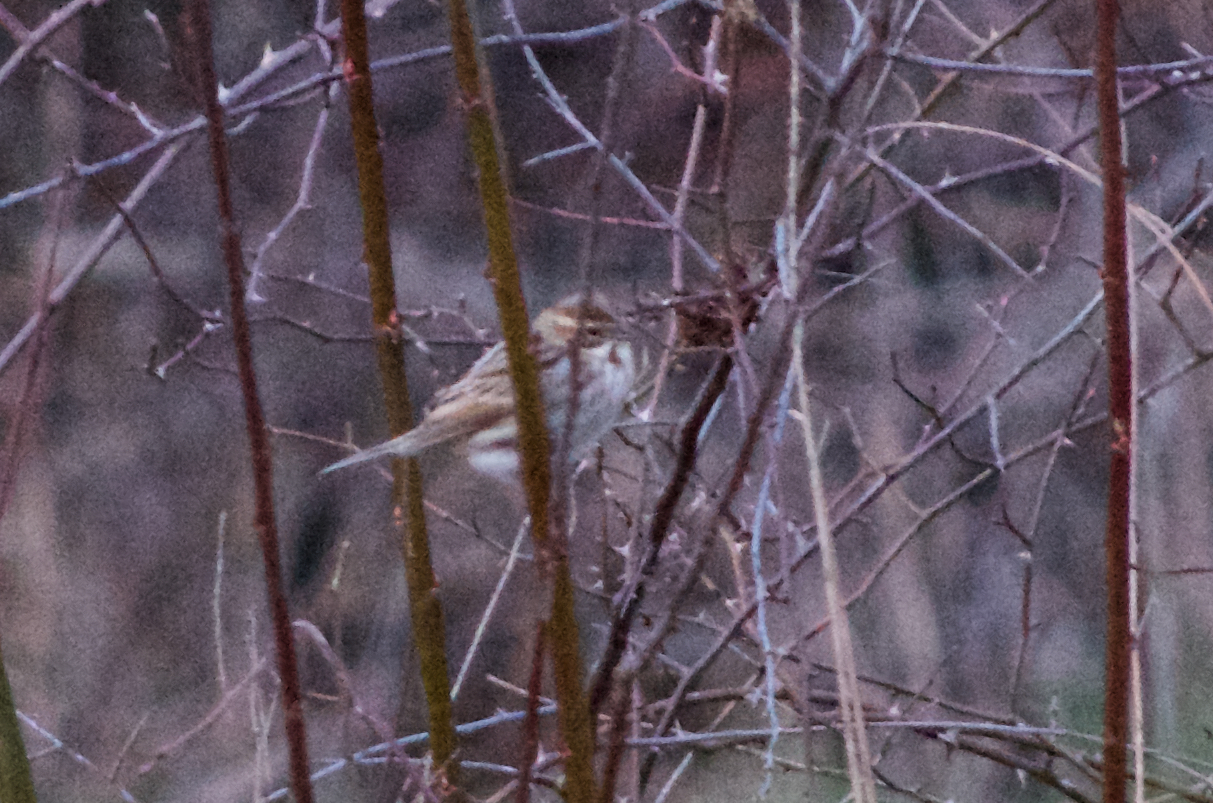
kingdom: Animalia
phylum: Chordata
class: Aves
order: Passeriformes
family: Emberizidae
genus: Emberiza
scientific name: Emberiza schoeniclus
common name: Reed bunting
